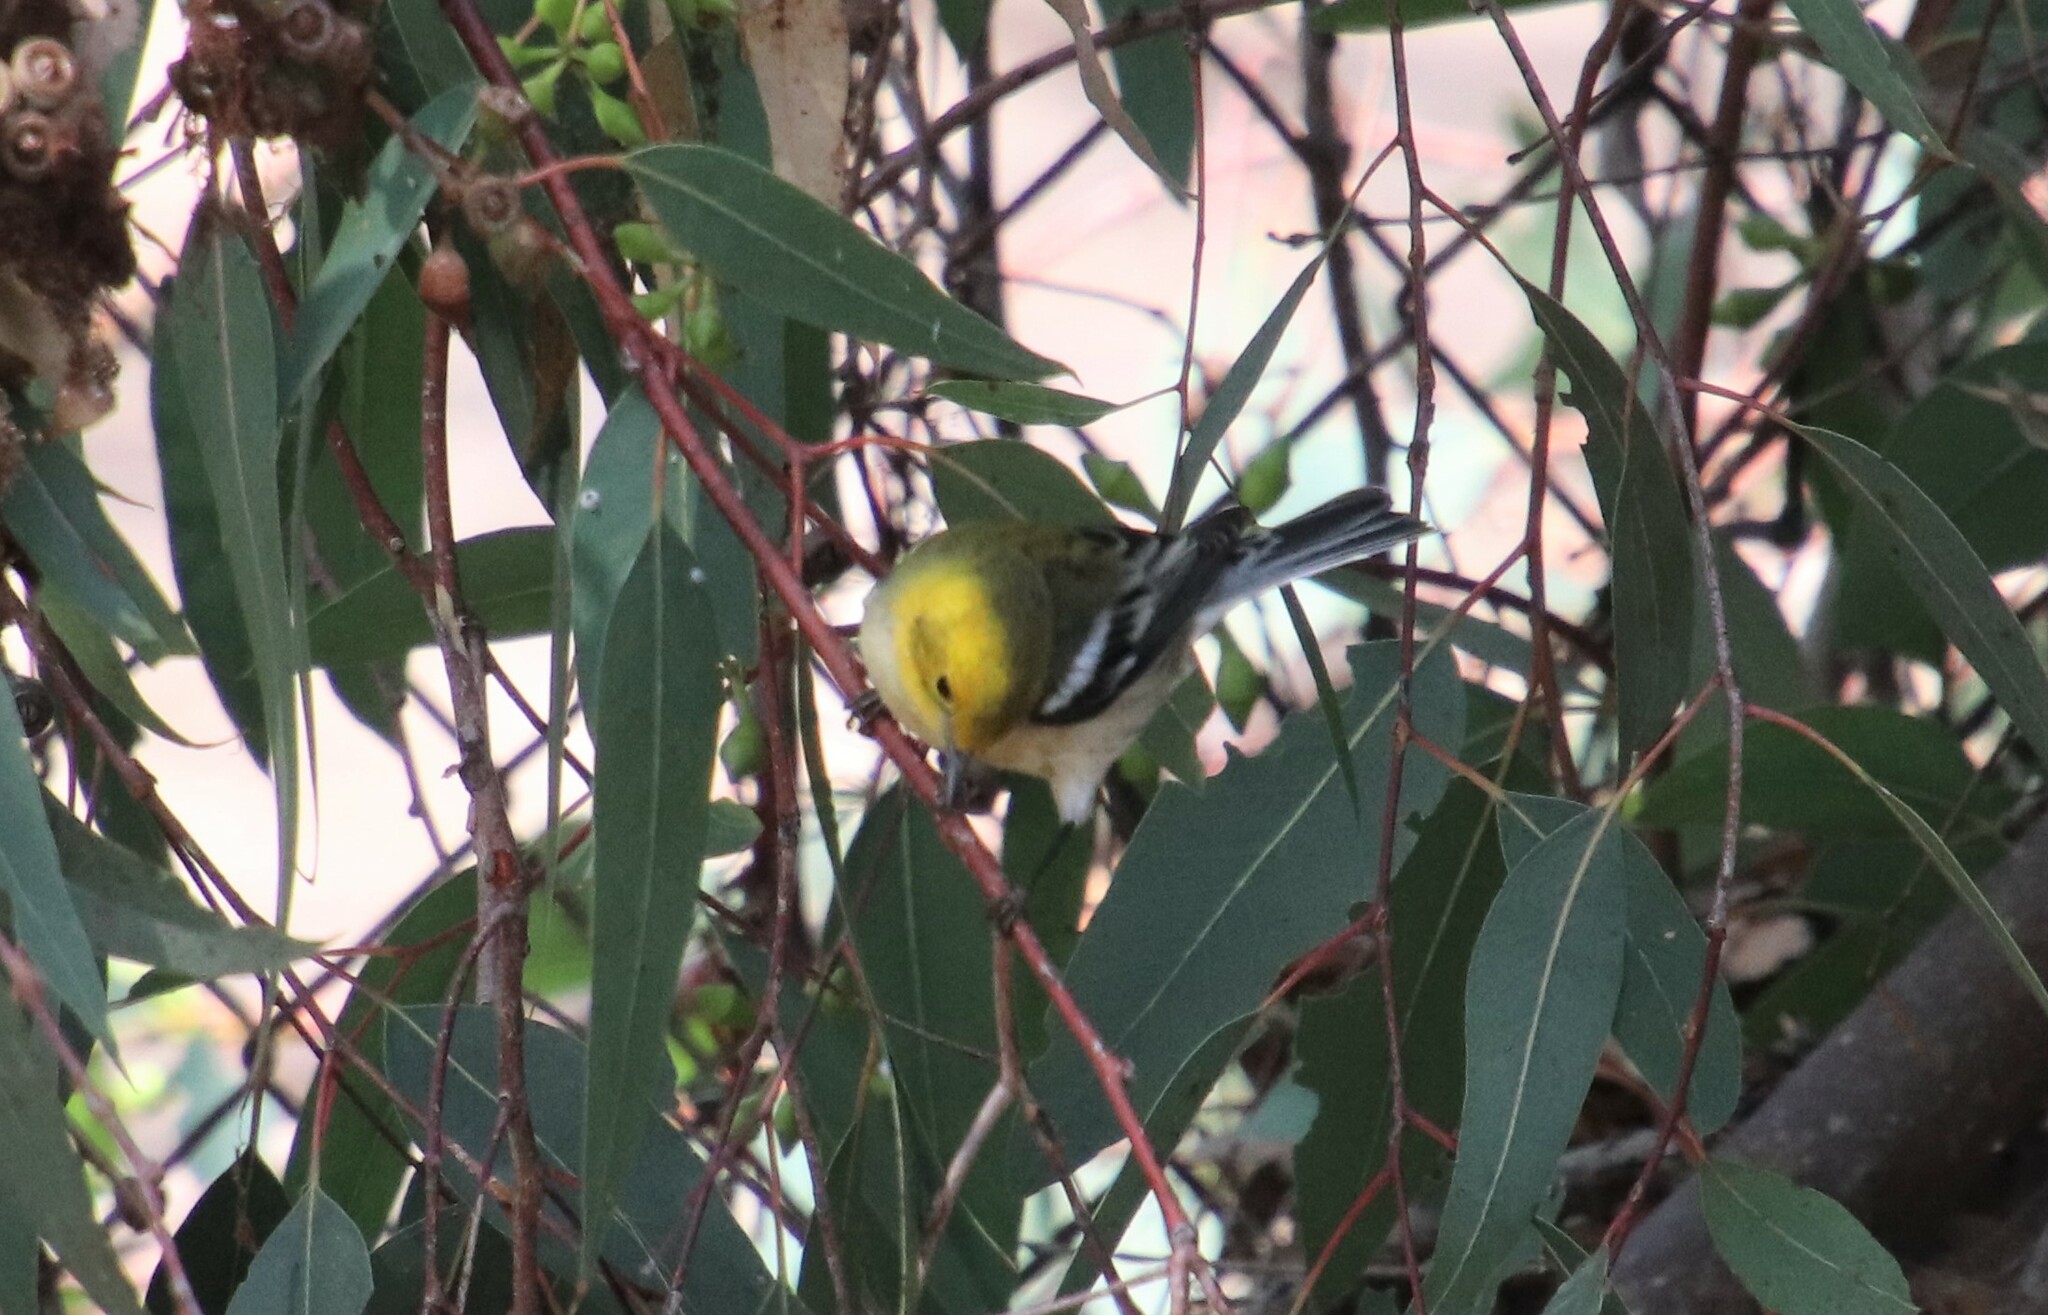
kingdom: Animalia
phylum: Chordata
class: Aves
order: Passeriformes
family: Parulidae
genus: Setophaga
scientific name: Setophaga occidentalis
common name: Hermit warbler
